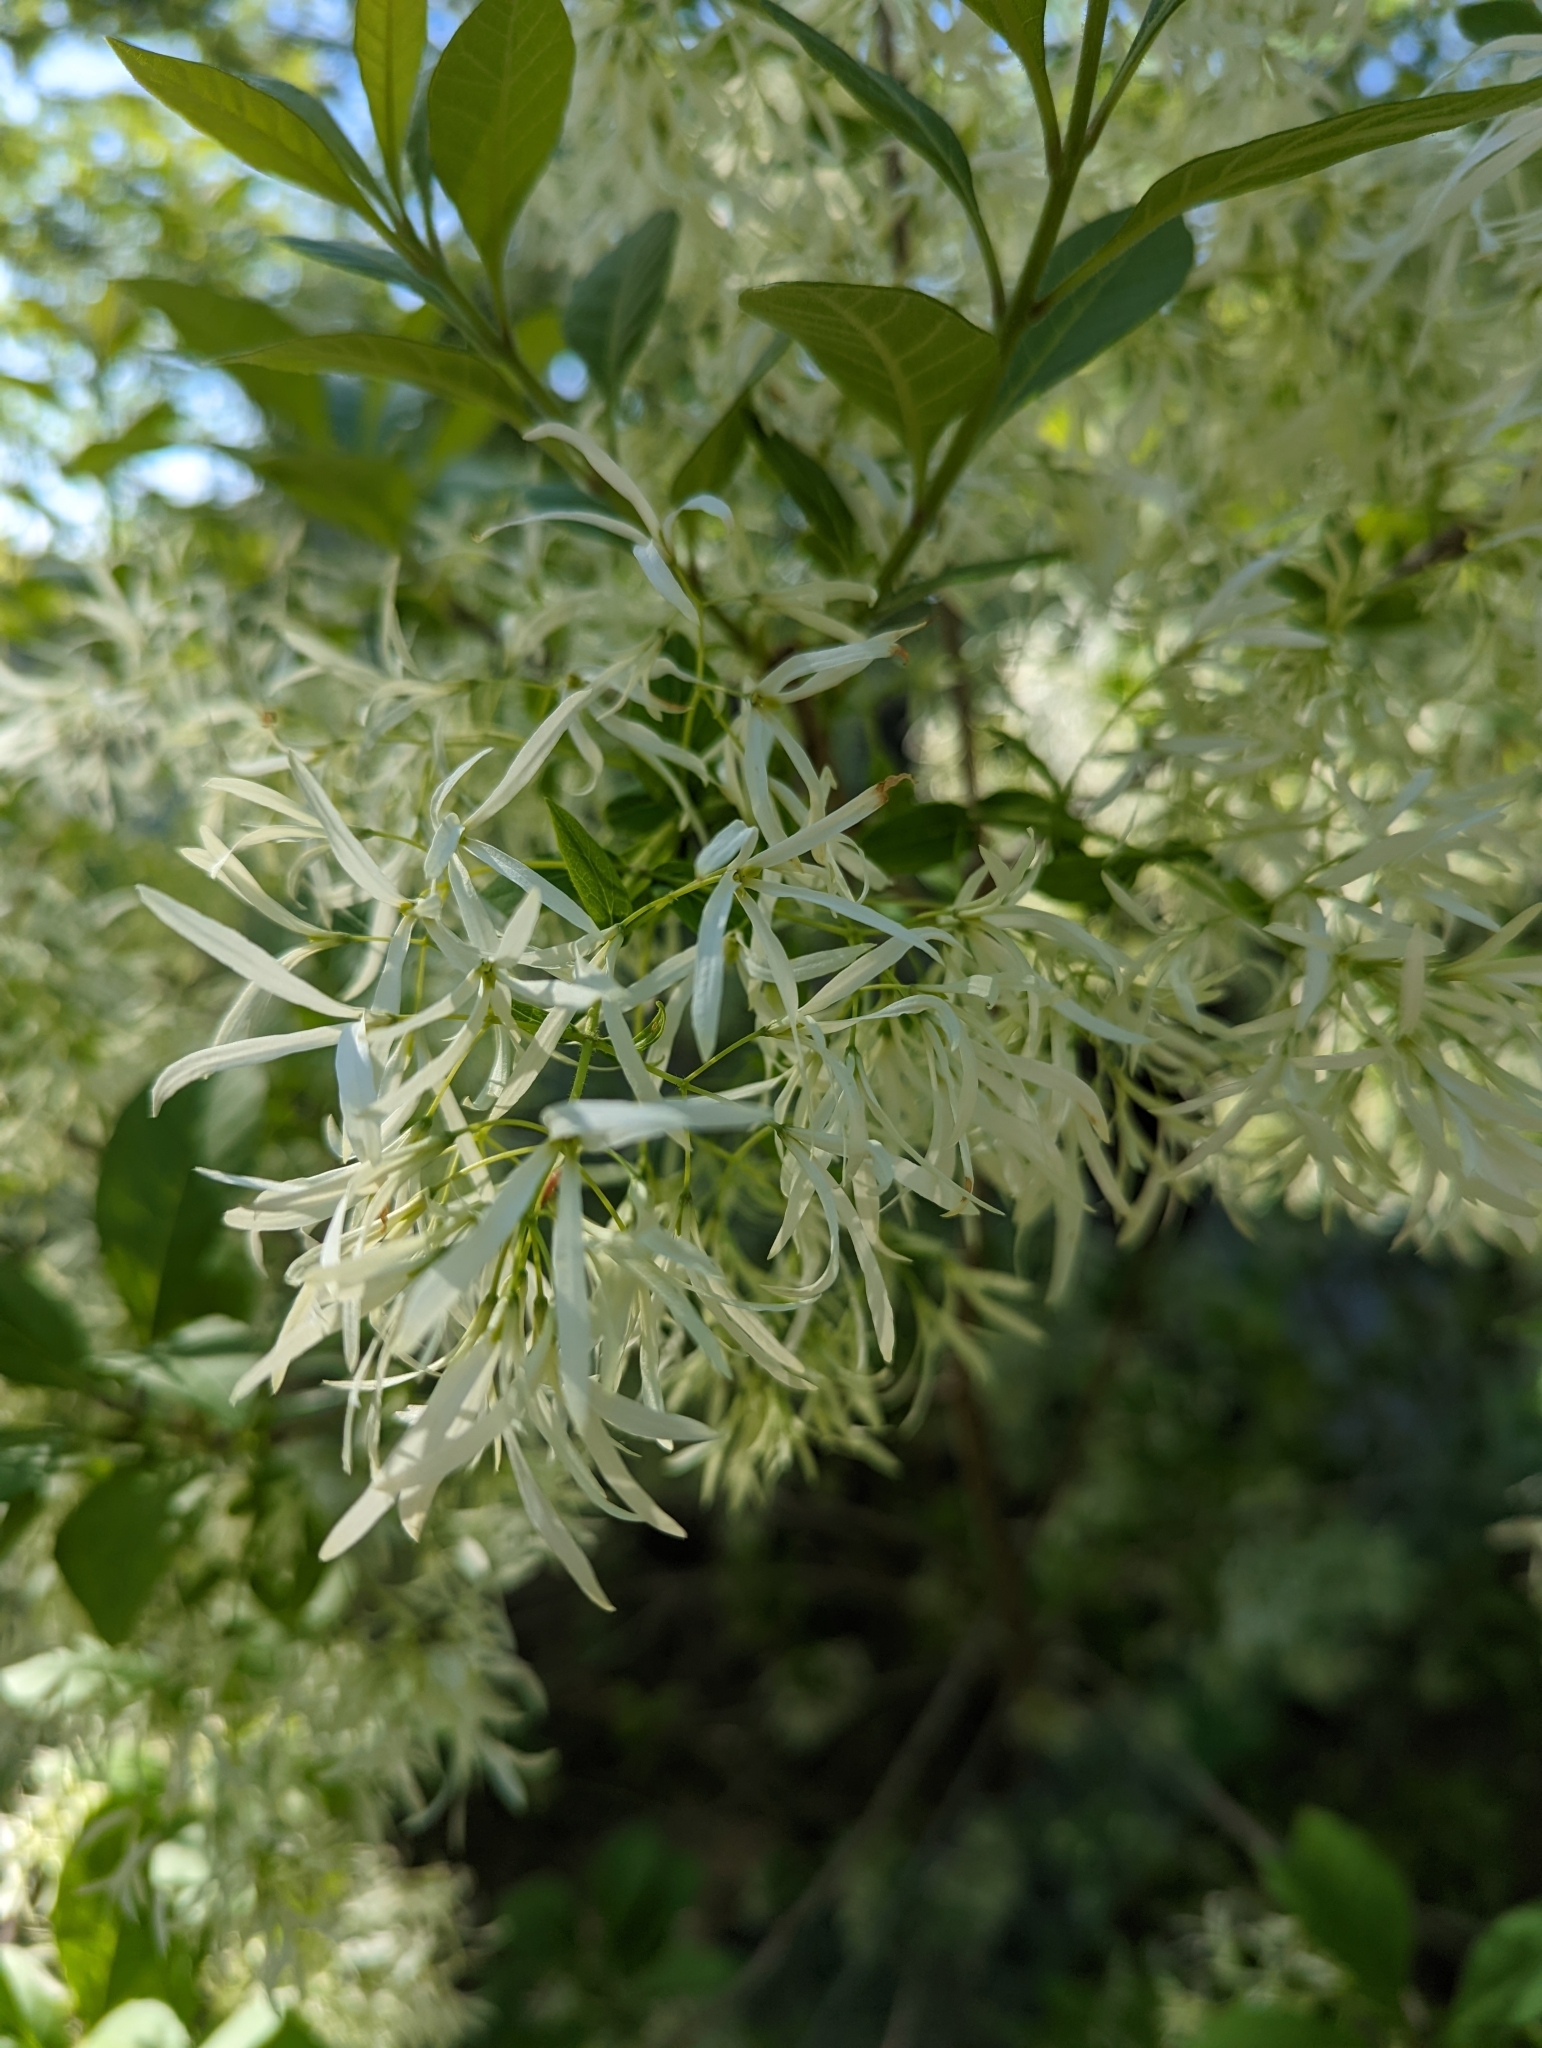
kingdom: Plantae
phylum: Tracheophyta
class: Magnoliopsida
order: Lamiales
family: Oleaceae
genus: Chionanthus
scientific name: Chionanthus virginicus
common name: American fringetree
